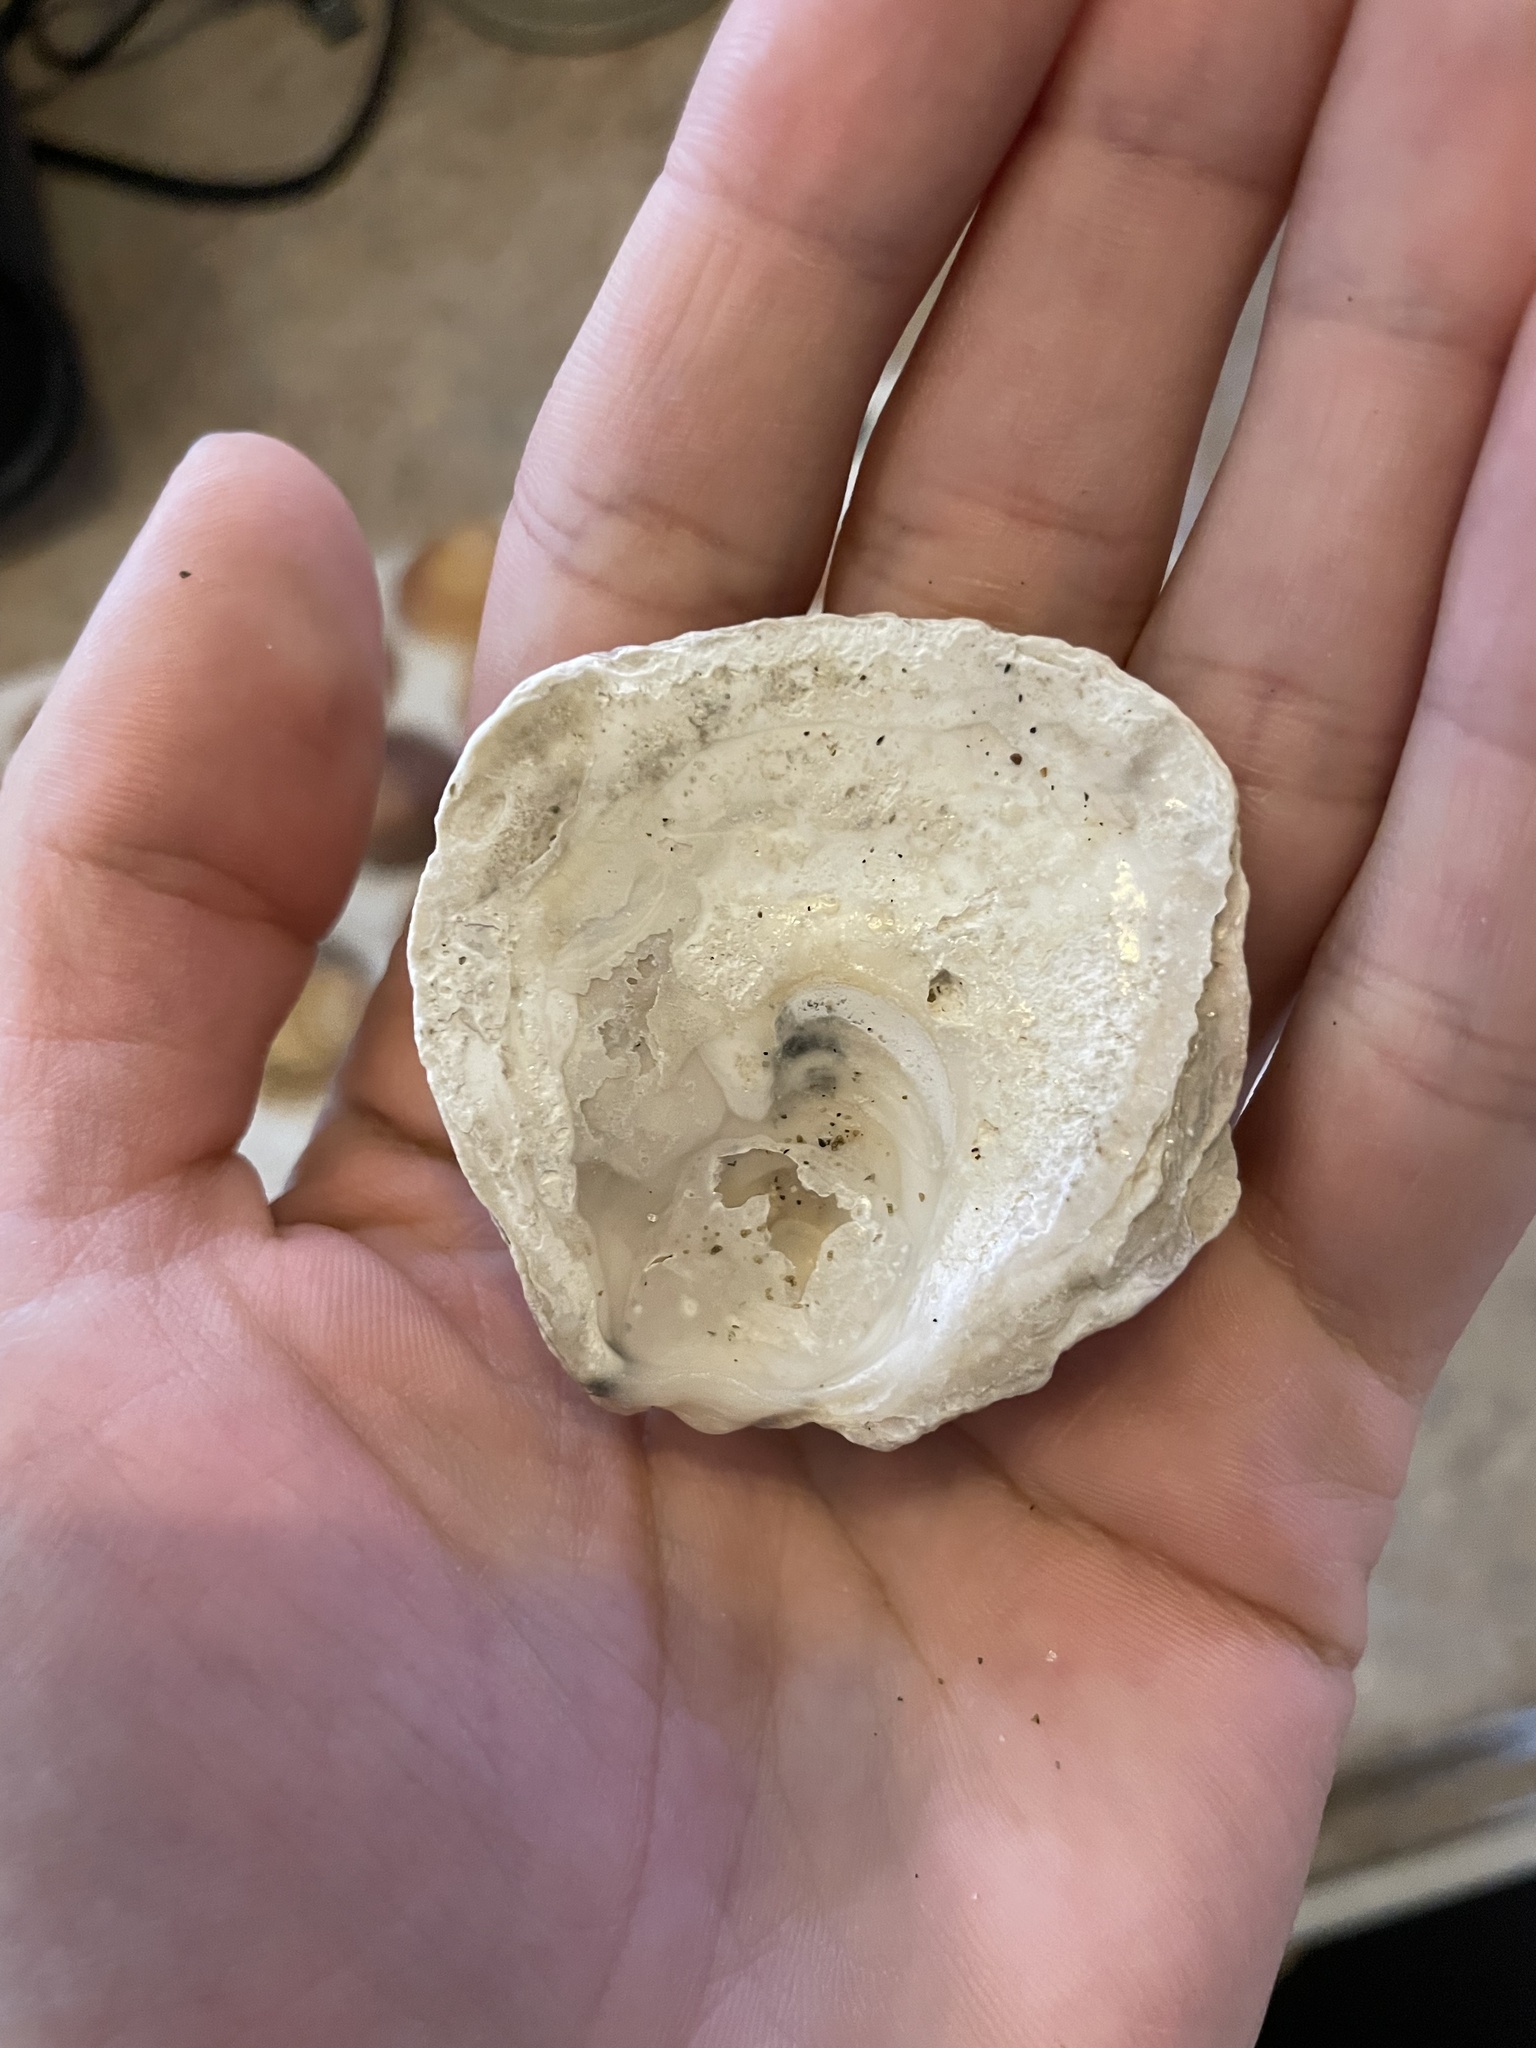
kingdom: Animalia
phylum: Mollusca
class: Bivalvia
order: Ostreida
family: Ostreidae
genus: Ostrea
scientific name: Ostrea edulis
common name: Flat oyster
